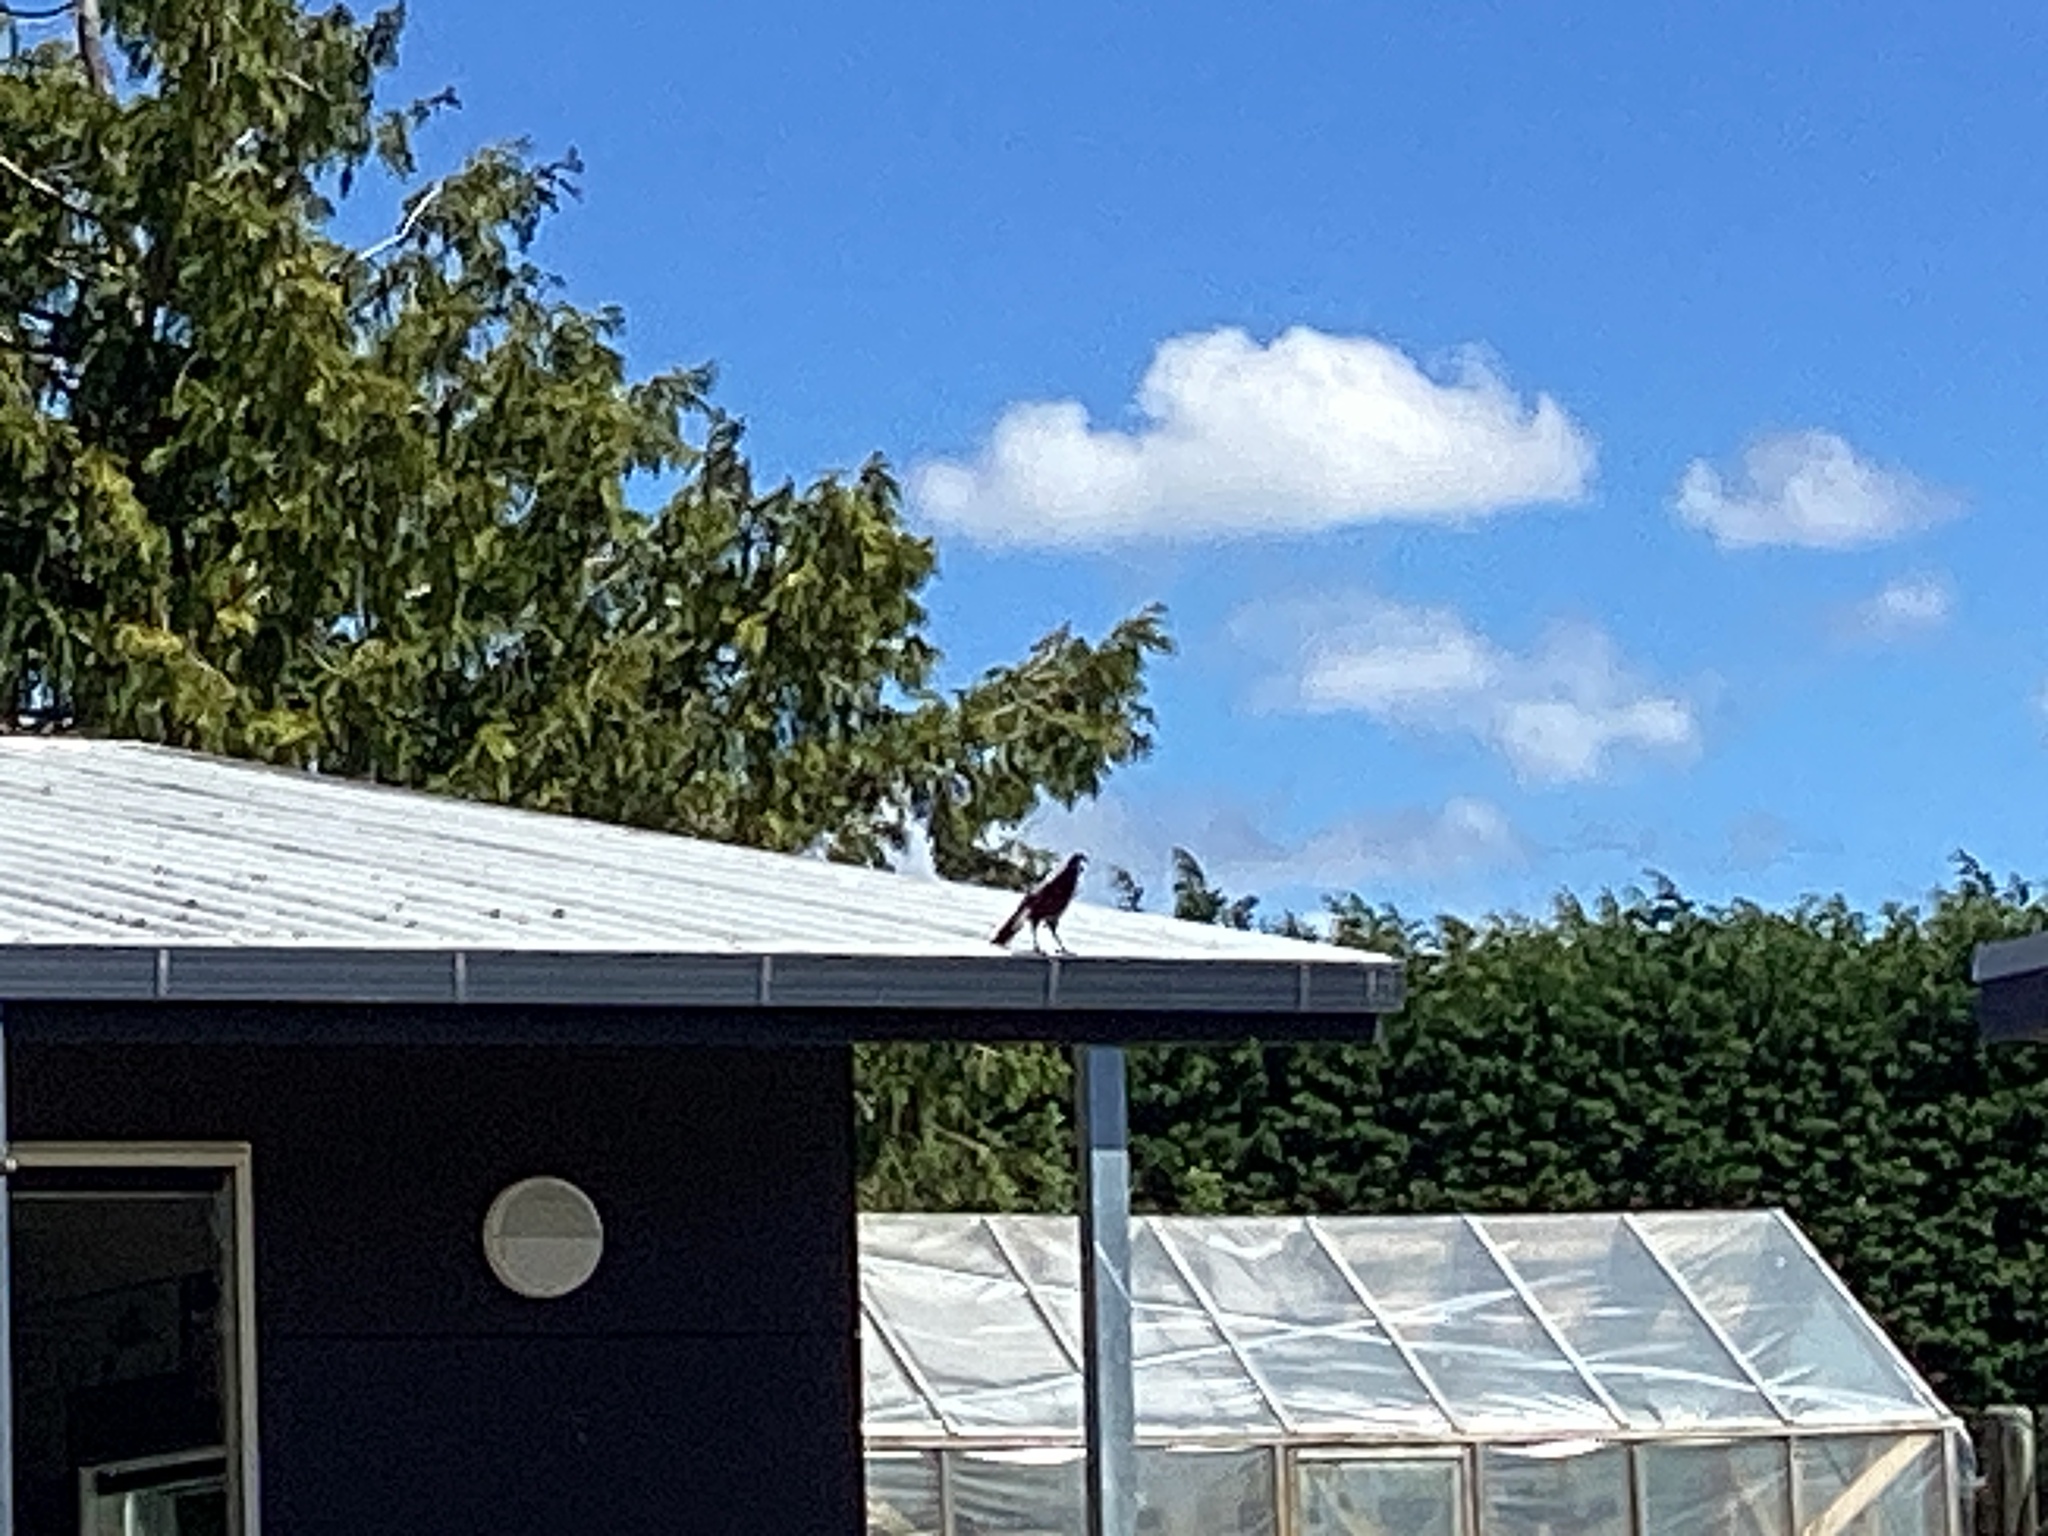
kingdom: Animalia
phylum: Chordata
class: Aves
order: Passeriformes
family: Cracticidae
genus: Gymnorhina
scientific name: Gymnorhina tibicen
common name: Australian magpie
